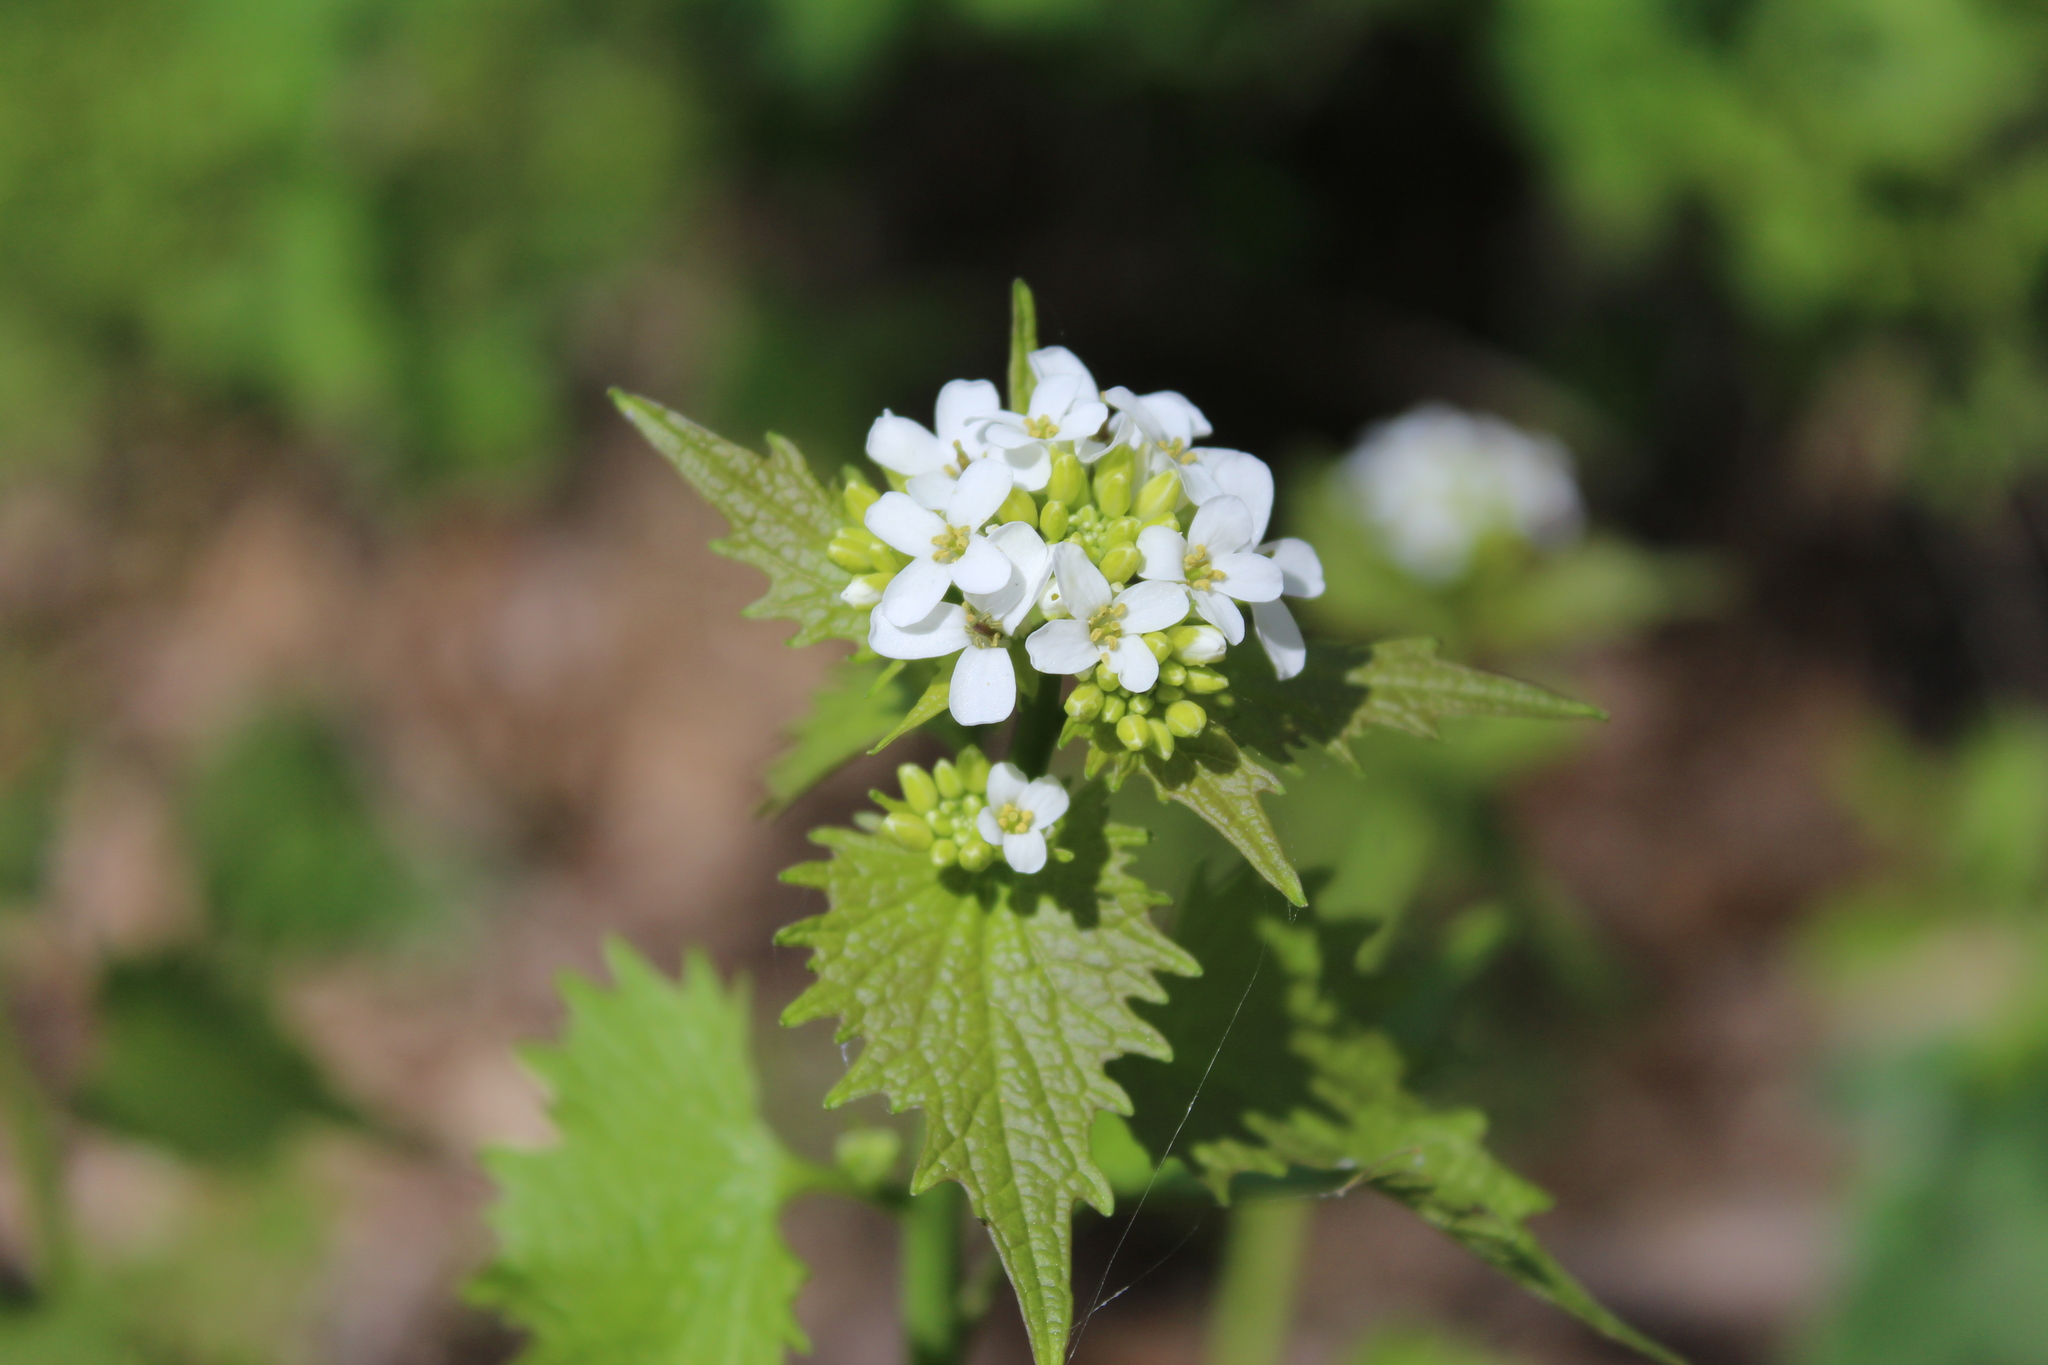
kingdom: Plantae
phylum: Tracheophyta
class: Magnoliopsida
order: Brassicales
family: Brassicaceae
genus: Alliaria
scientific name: Alliaria petiolata
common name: Garlic mustard
